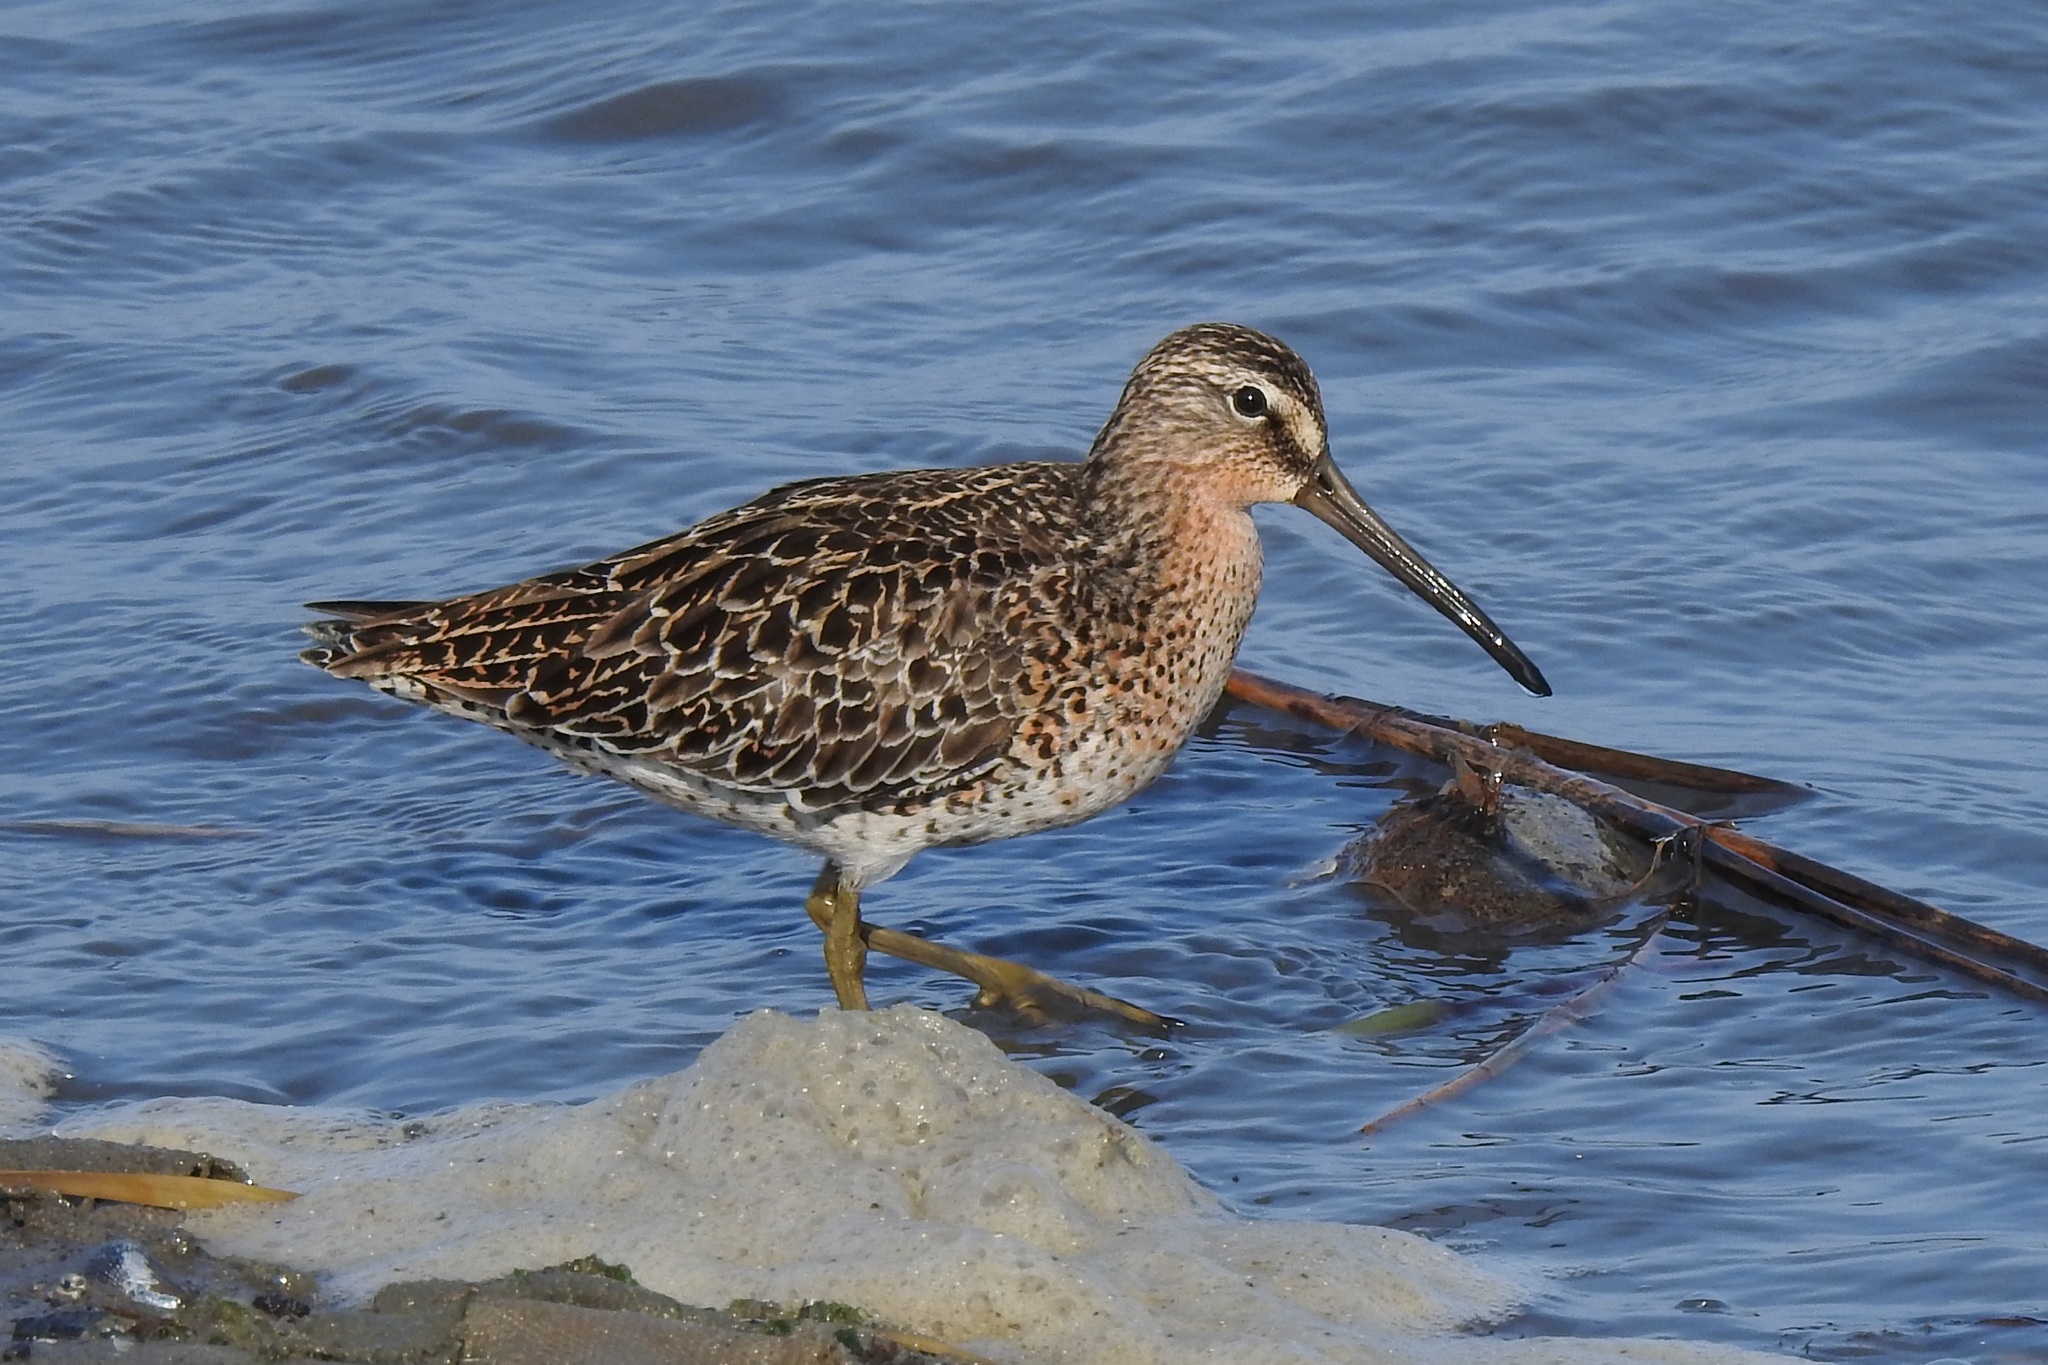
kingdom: Animalia
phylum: Chordata
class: Aves
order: Charadriiformes
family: Scolopacidae
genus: Limnodromus
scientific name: Limnodromus griseus
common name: Short-billed dowitcher
